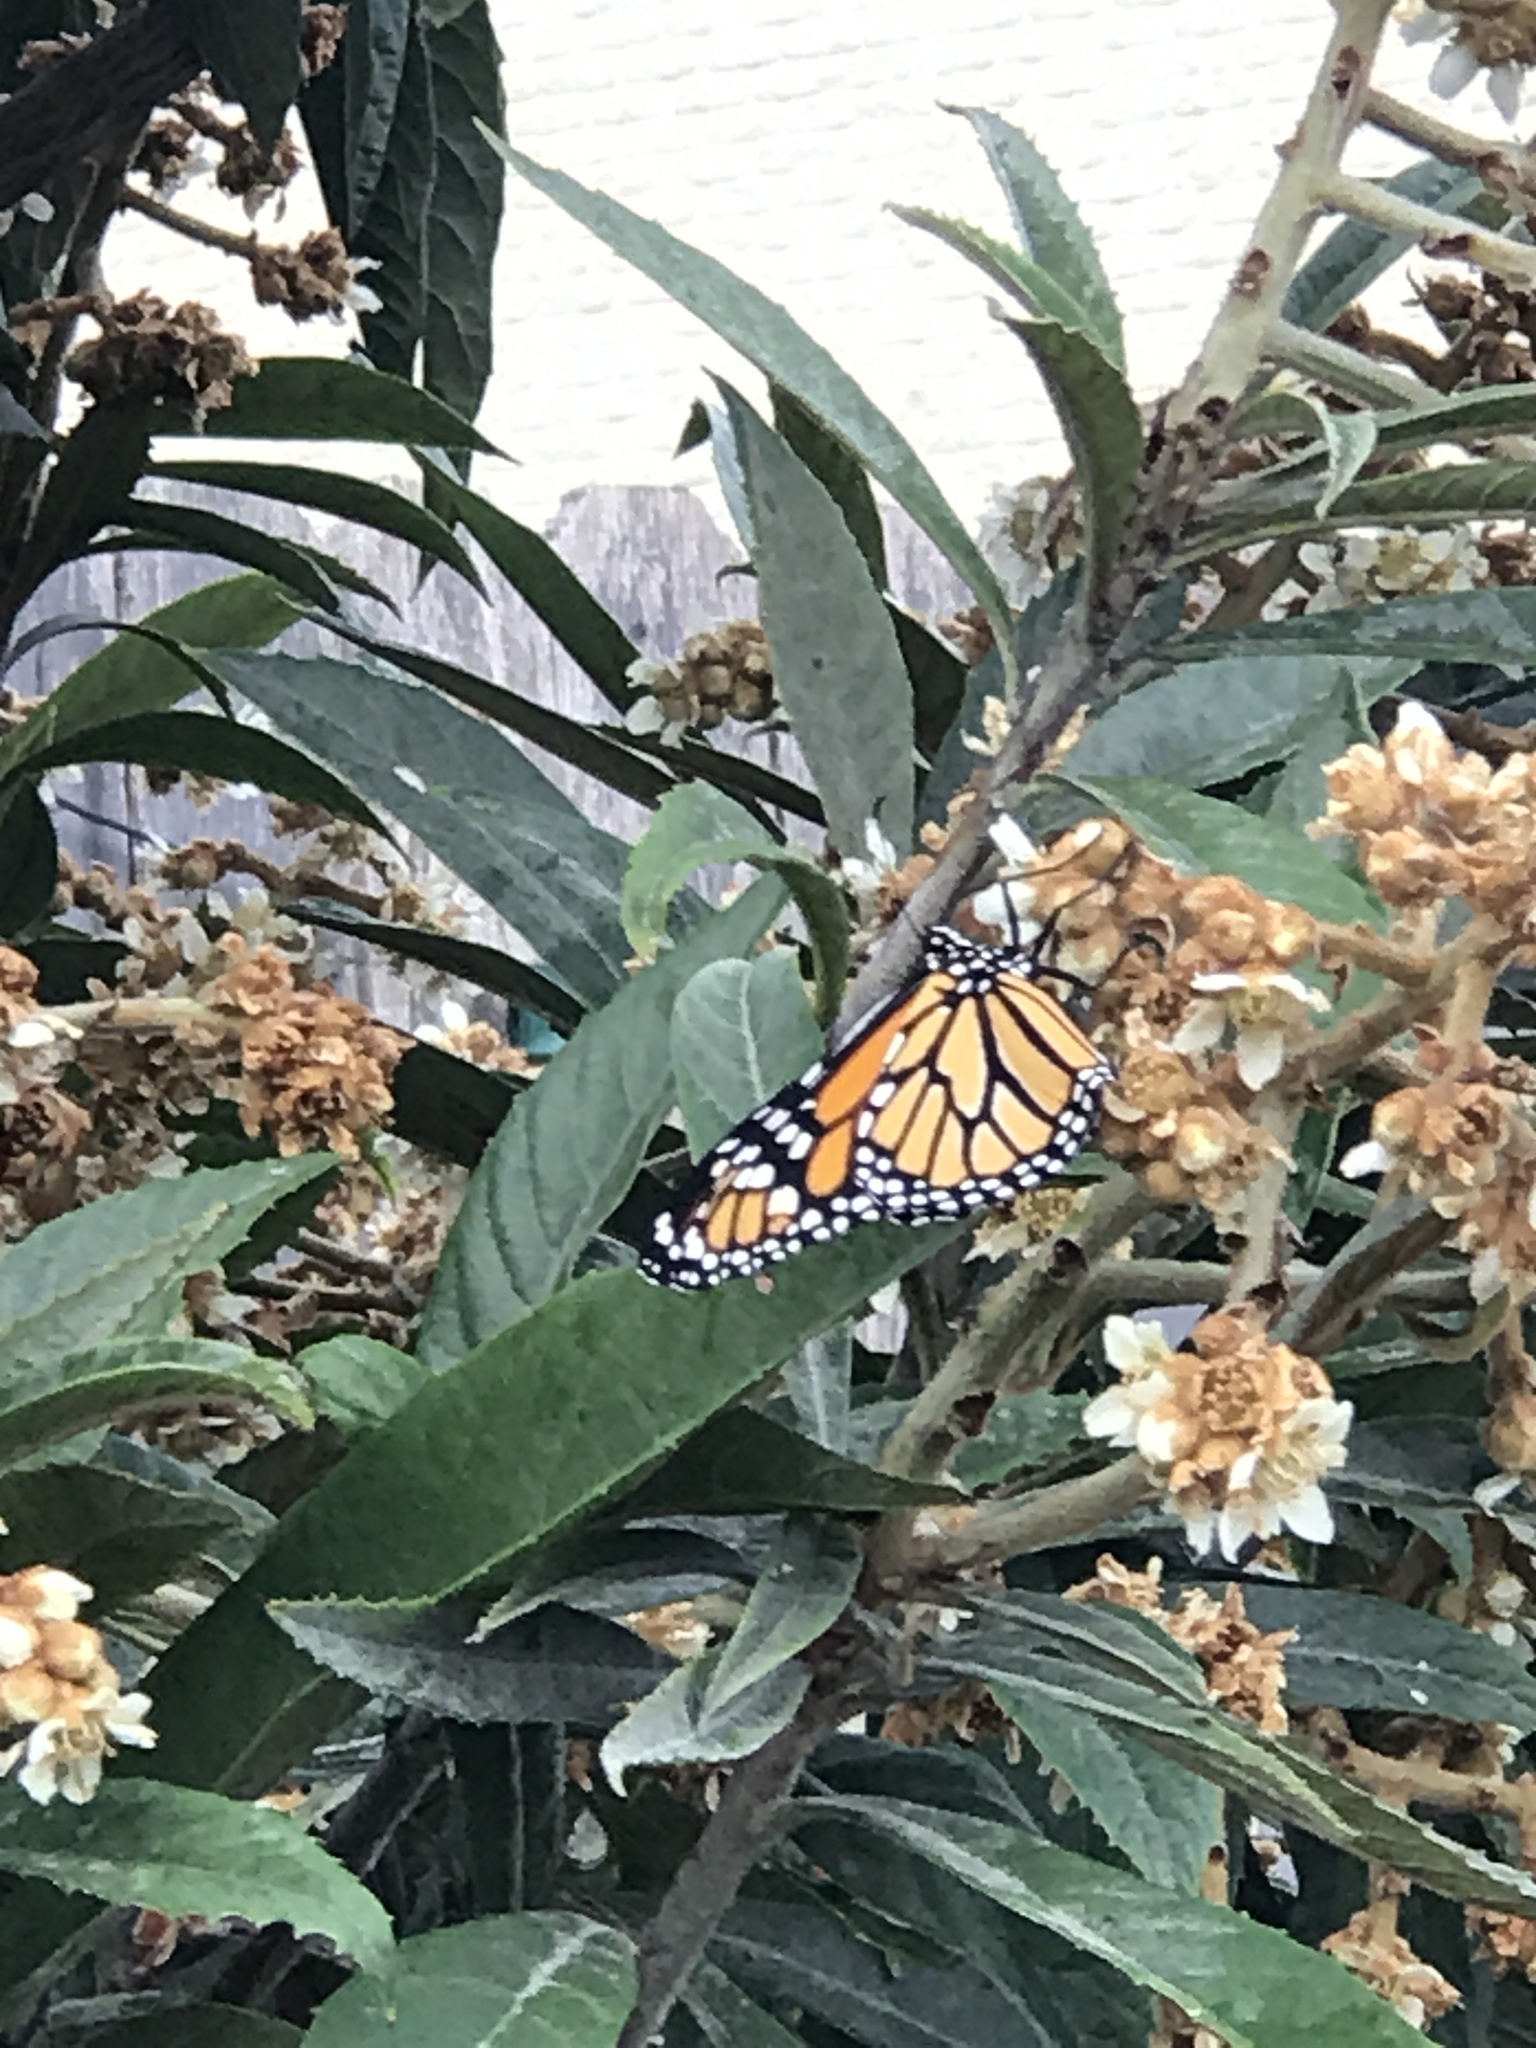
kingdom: Animalia
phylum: Arthropoda
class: Insecta
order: Lepidoptera
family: Nymphalidae
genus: Danaus
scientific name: Danaus plexippus
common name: Monarch
